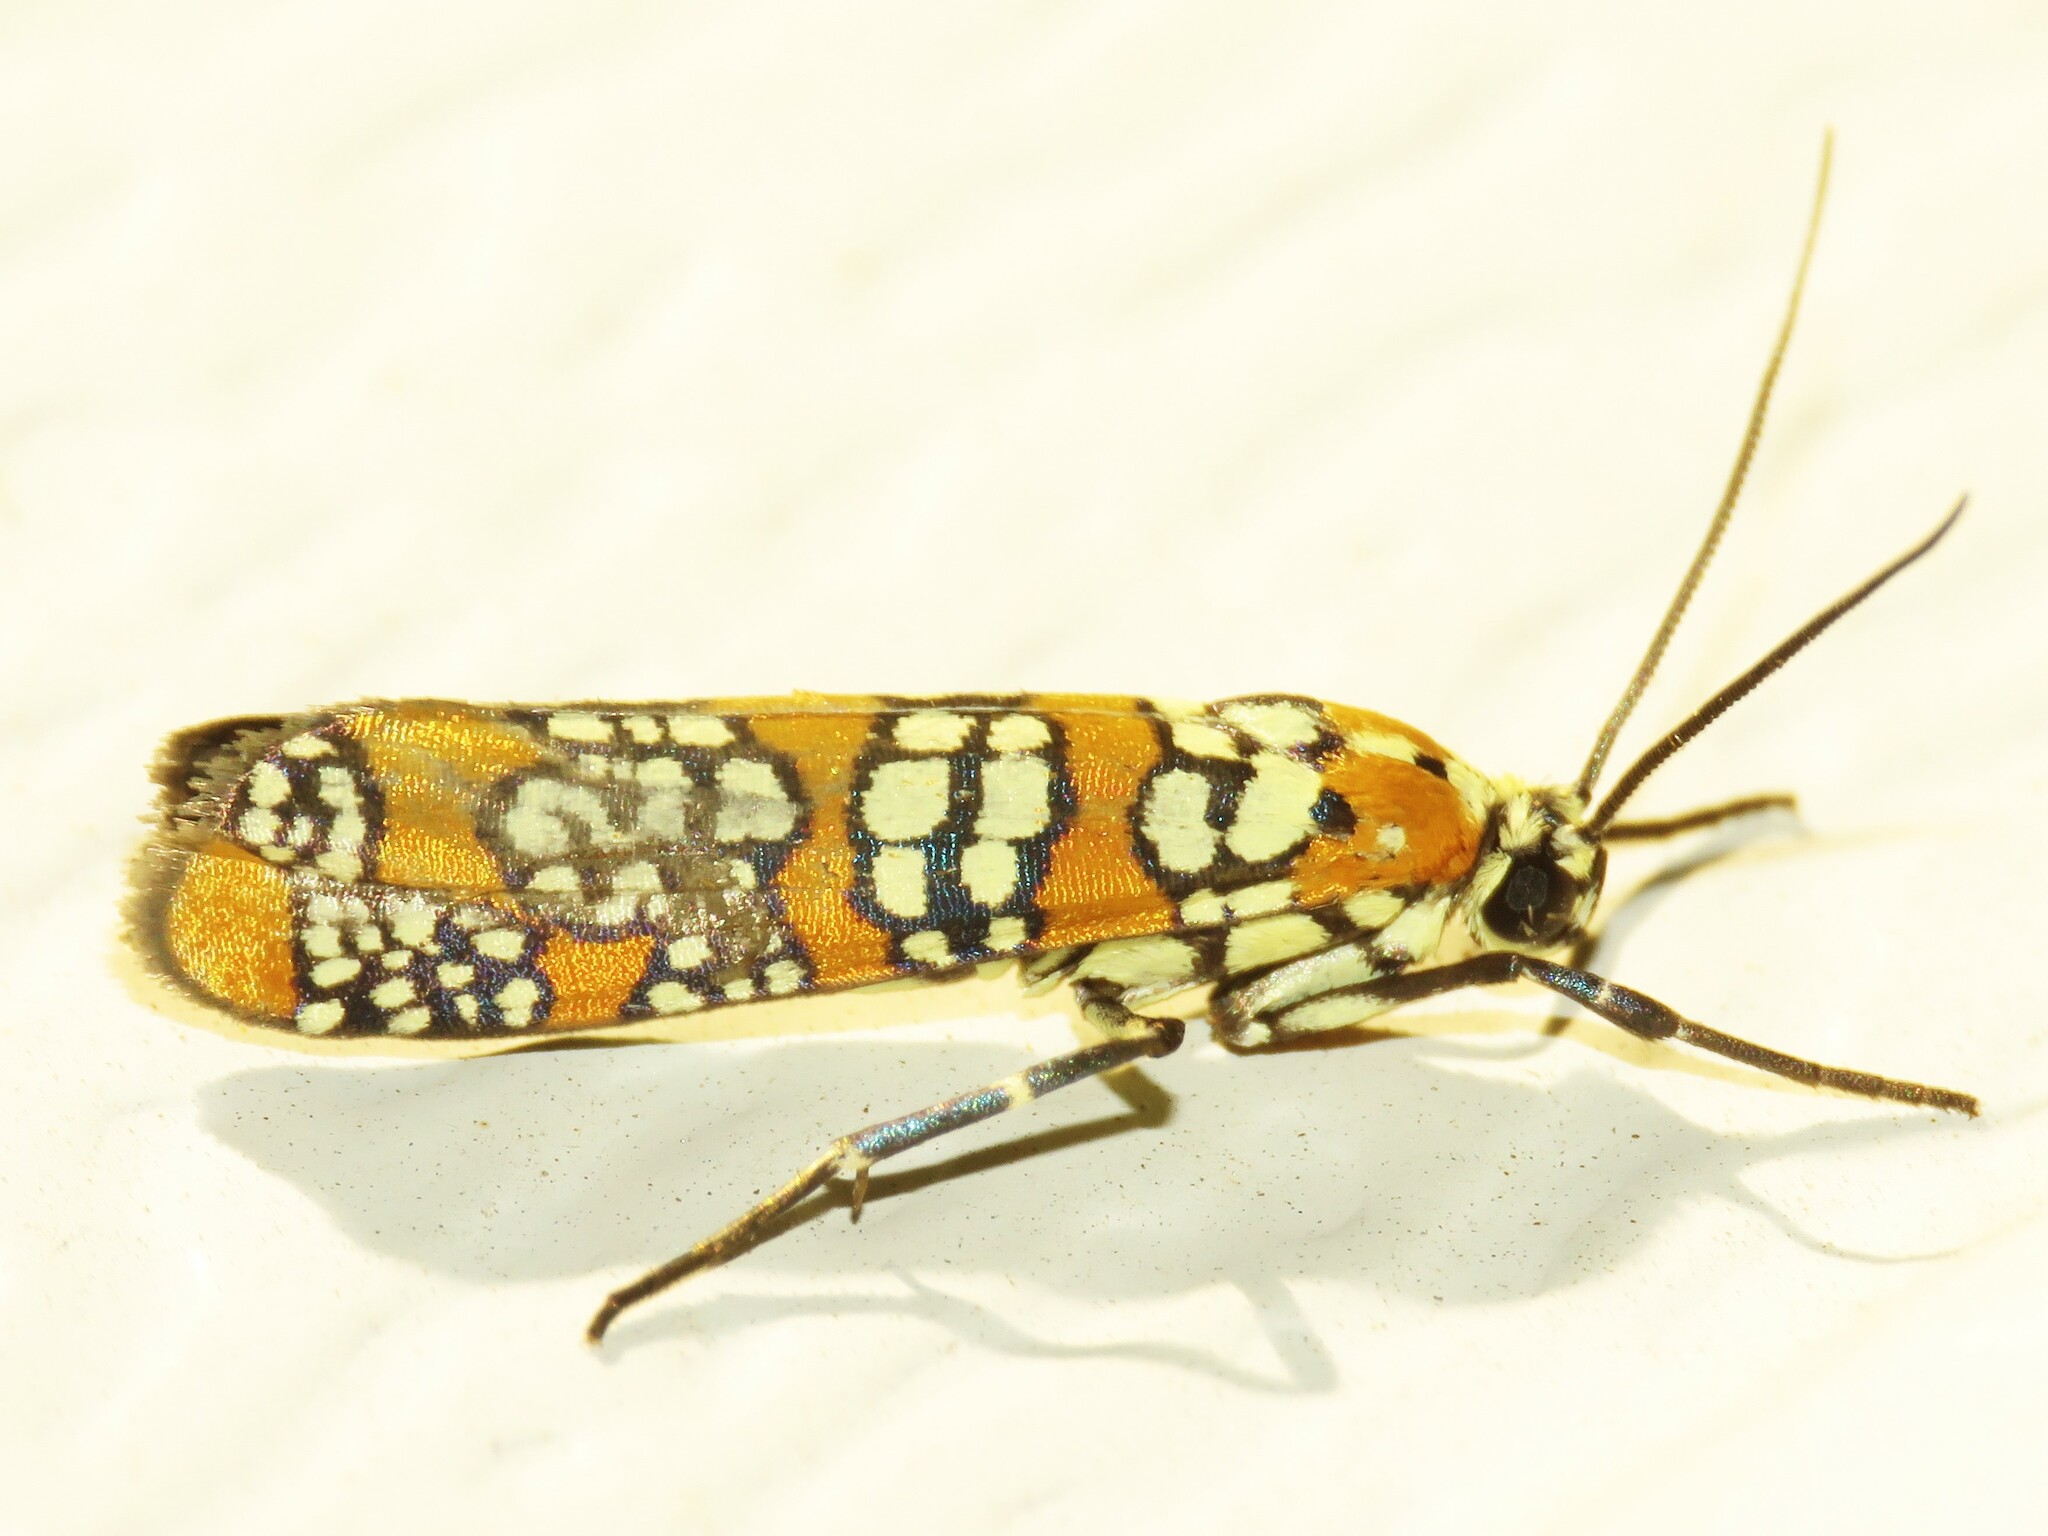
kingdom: Animalia
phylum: Arthropoda
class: Insecta
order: Lepidoptera
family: Attevidae
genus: Atteva
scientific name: Atteva punctella
